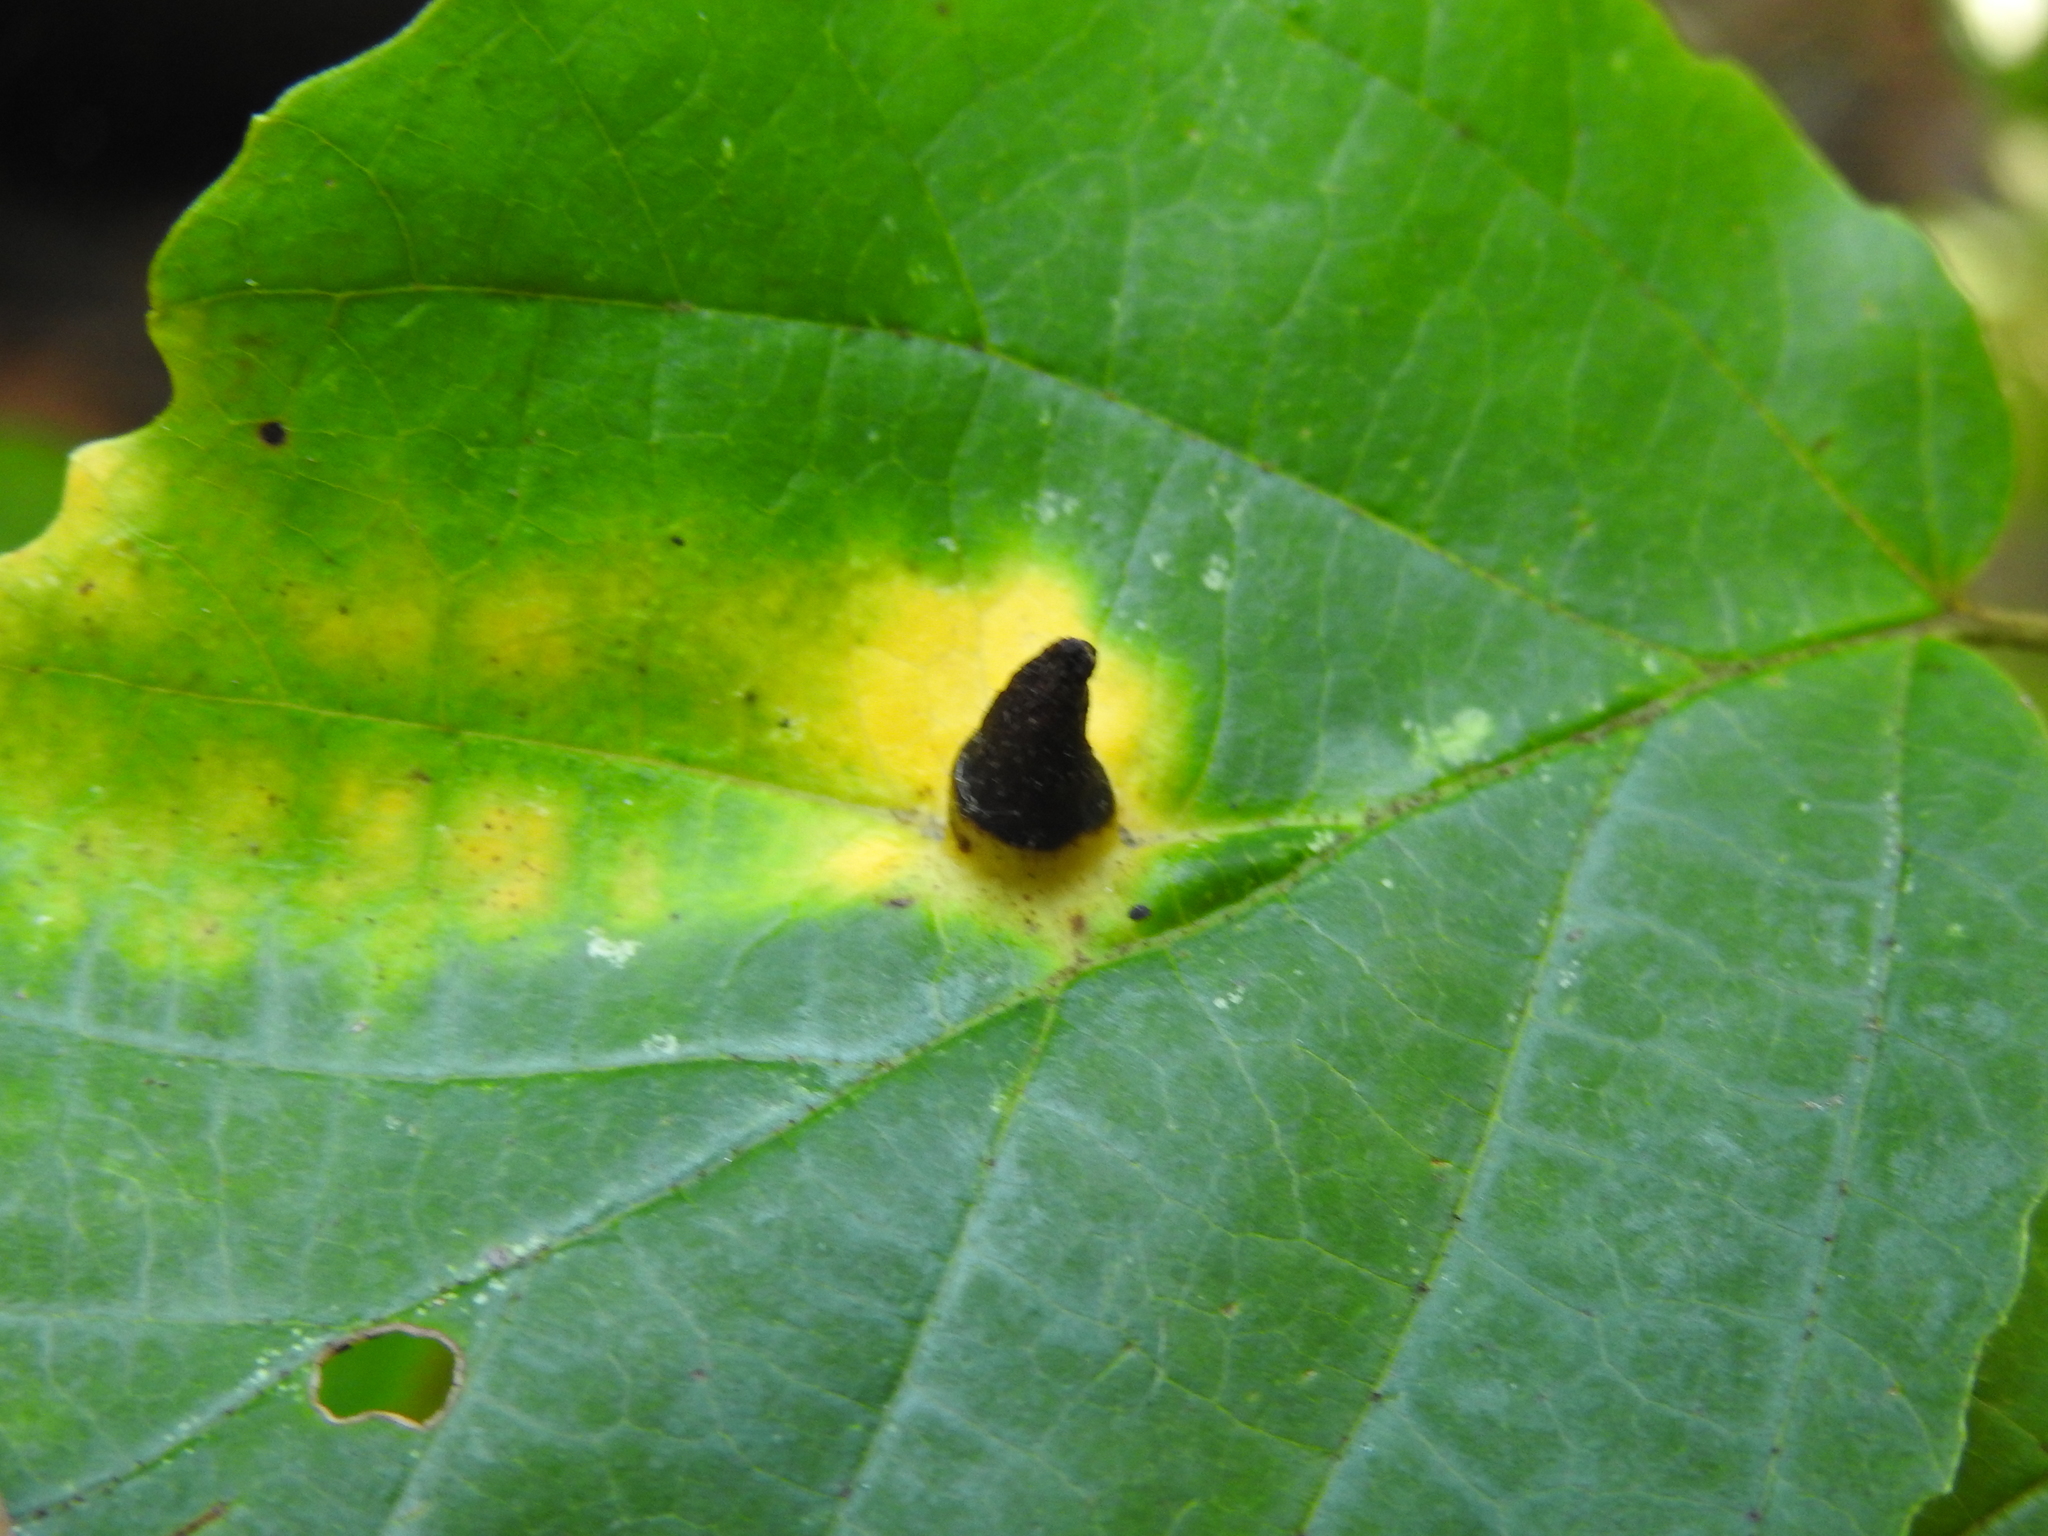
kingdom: Animalia
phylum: Arthropoda
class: Insecta
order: Hemiptera
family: Aphididae
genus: Hormaphis
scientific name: Hormaphis hamamelidis
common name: Witch-hazel cone gall aphid
